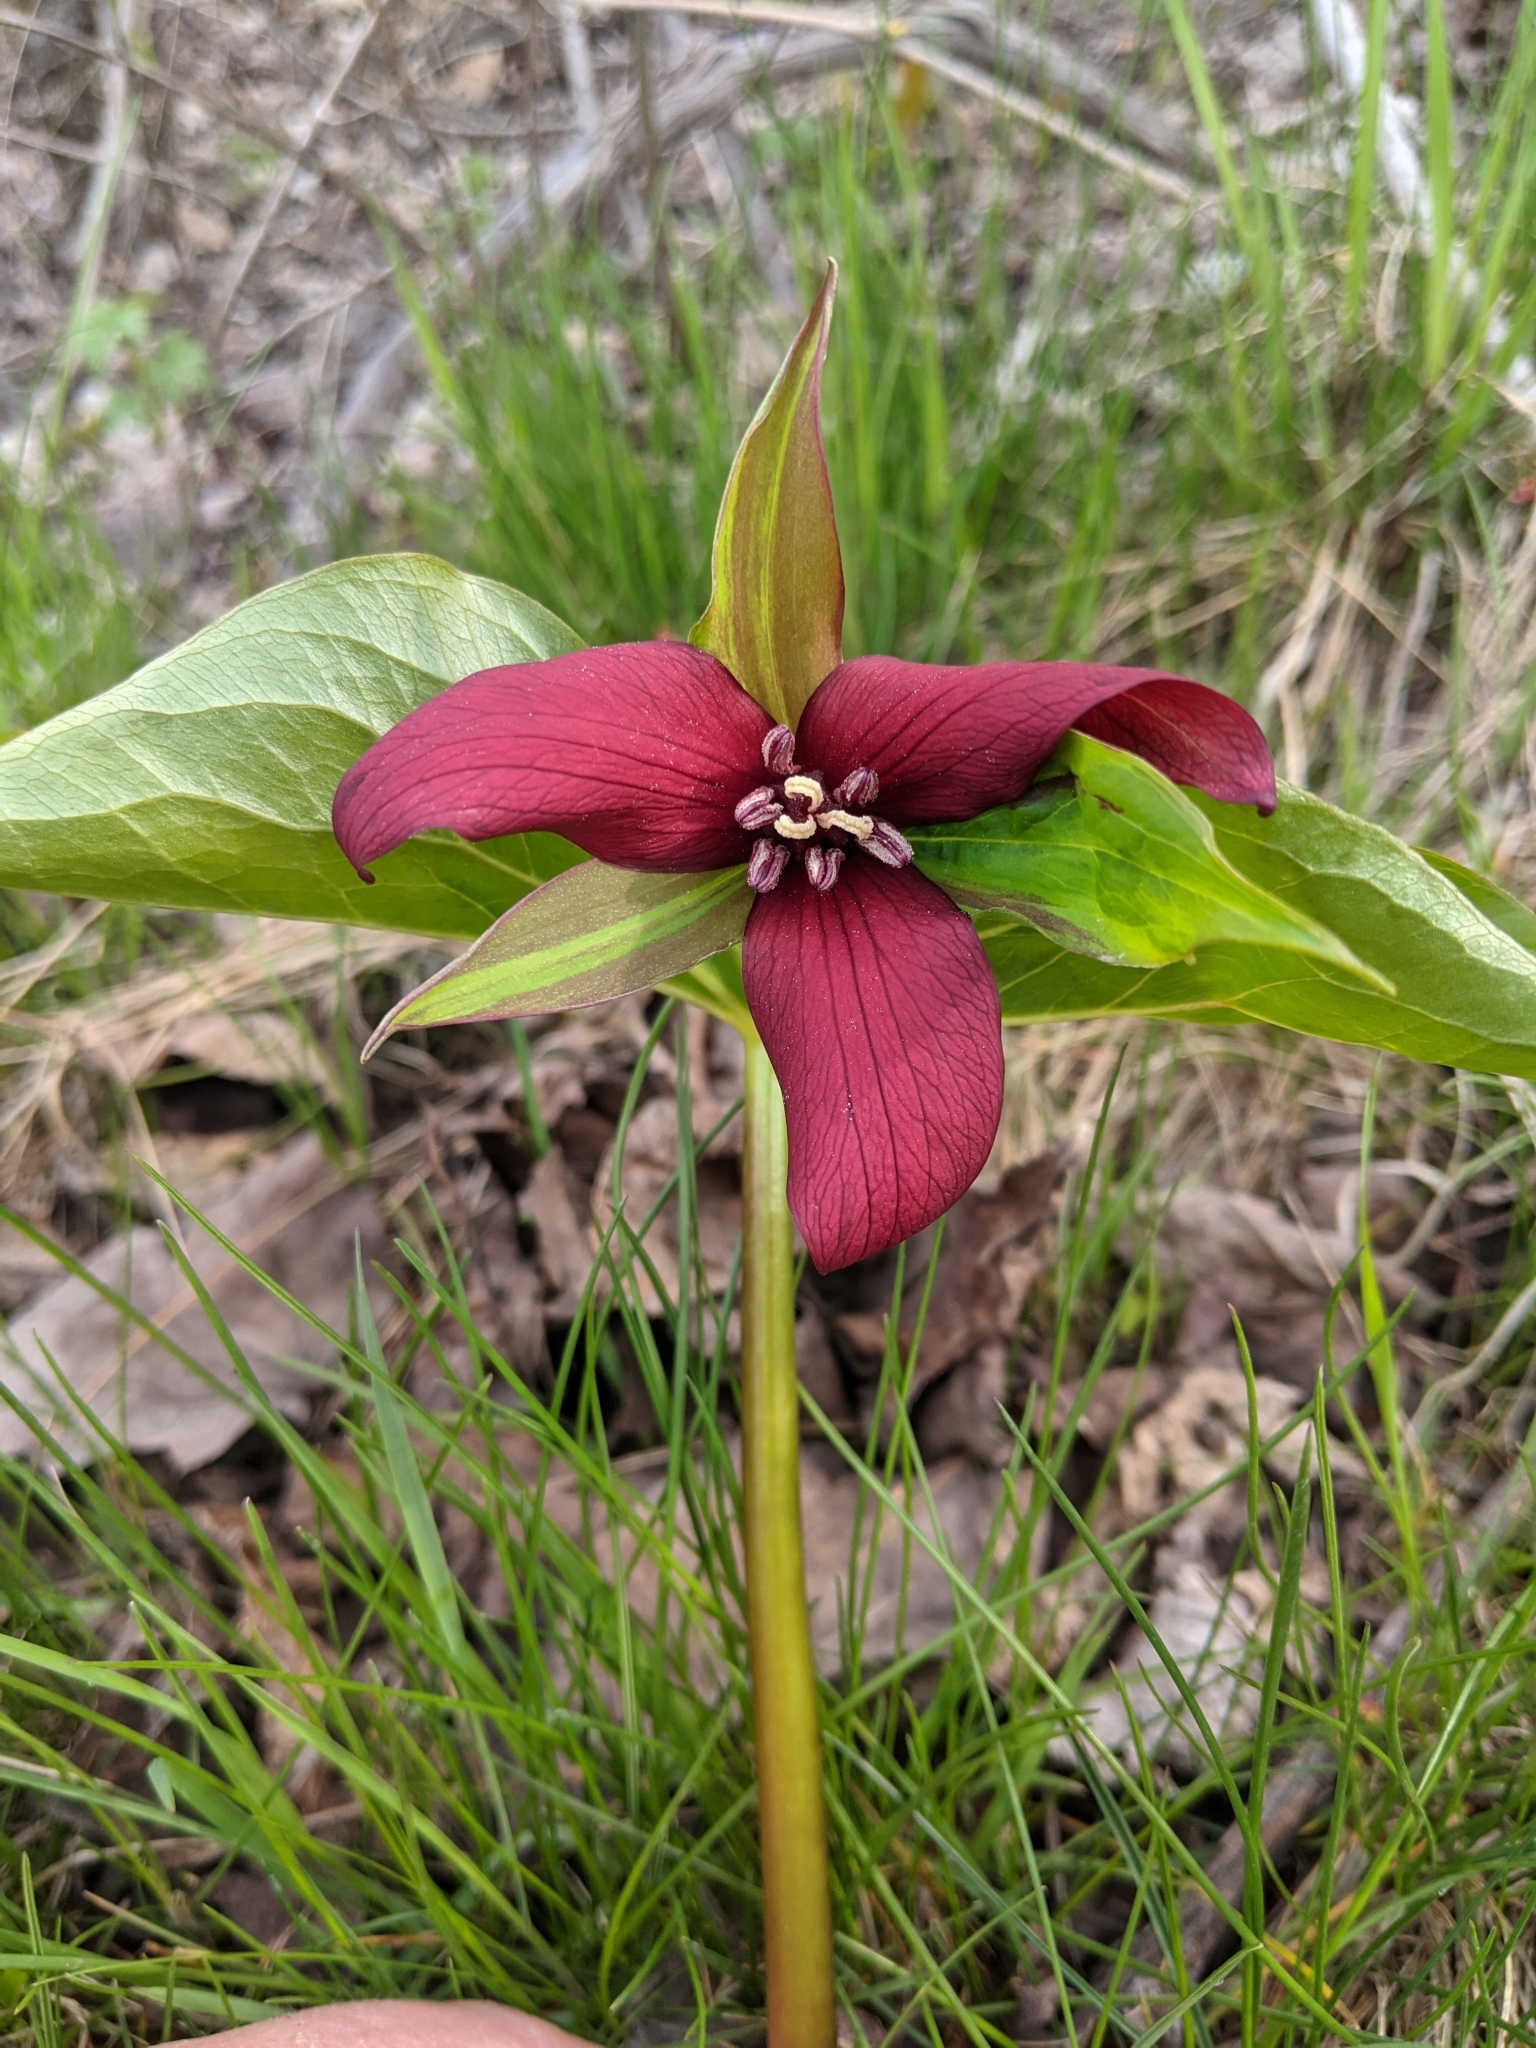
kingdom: Plantae
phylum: Tracheophyta
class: Liliopsida
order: Liliales
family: Melanthiaceae
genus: Trillium
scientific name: Trillium erectum
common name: Purple trillium
